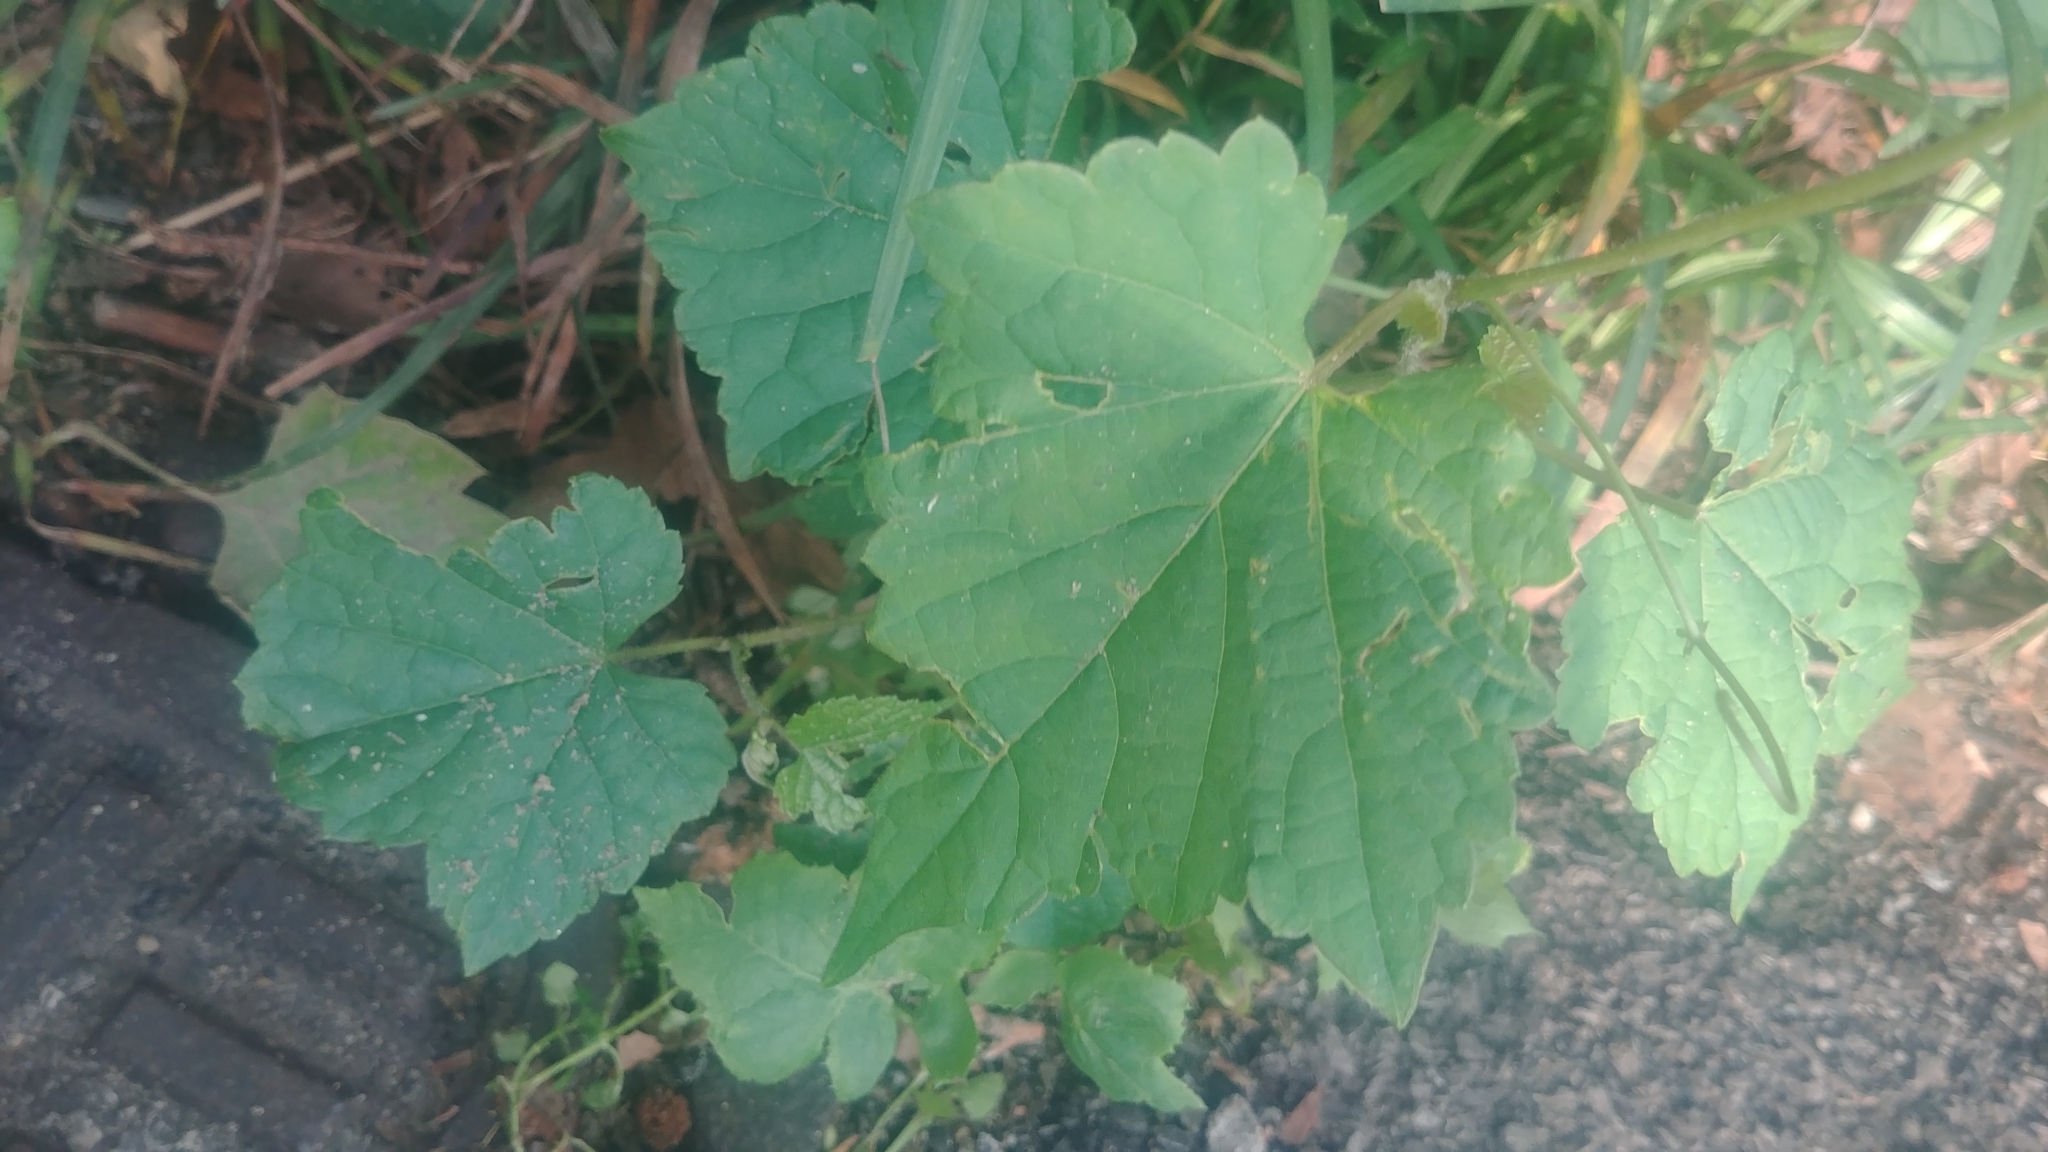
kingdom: Plantae
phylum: Tracheophyta
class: Magnoliopsida
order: Vitales
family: Vitaceae
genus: Ampelopsis
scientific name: Ampelopsis glandulosa
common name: Amur peppervine
